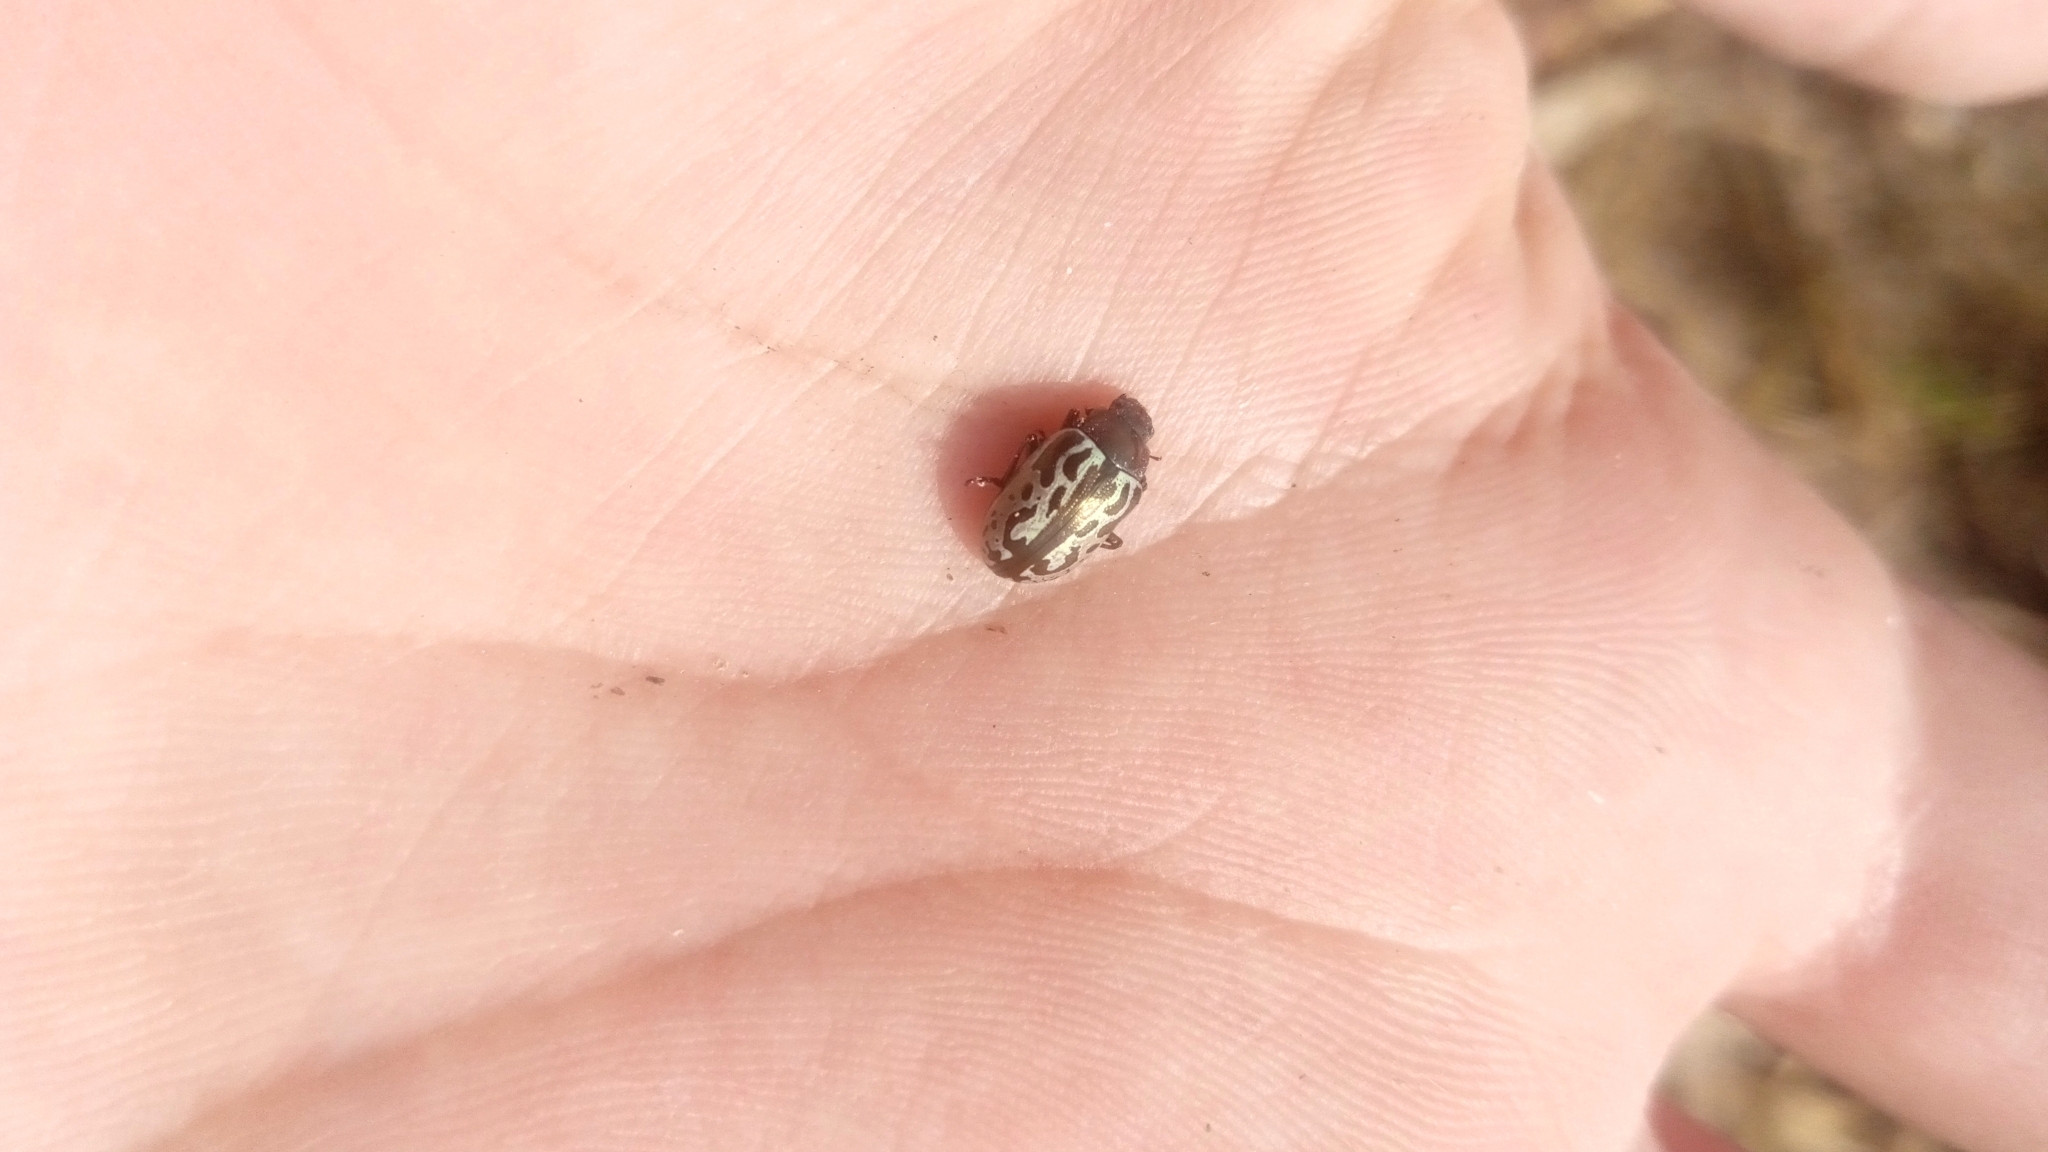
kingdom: Animalia
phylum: Arthropoda
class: Insecta
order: Coleoptera
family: Chrysomelidae
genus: Calligrapha
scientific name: Calligrapha
